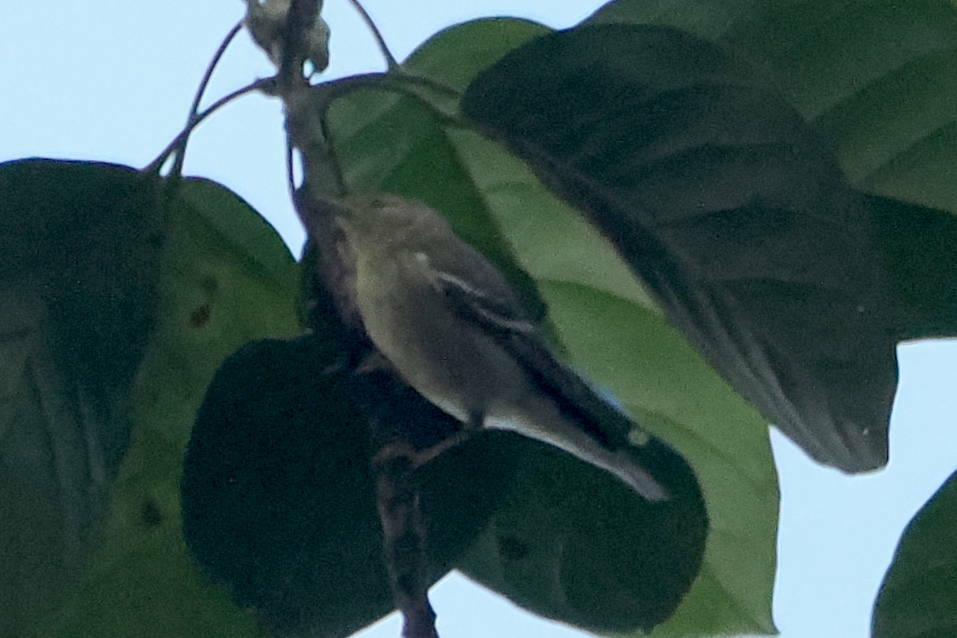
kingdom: Animalia
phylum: Chordata
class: Aves
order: Passeriformes
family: Parulidae
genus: Setophaga
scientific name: Setophaga striata
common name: Blackpoll warbler
